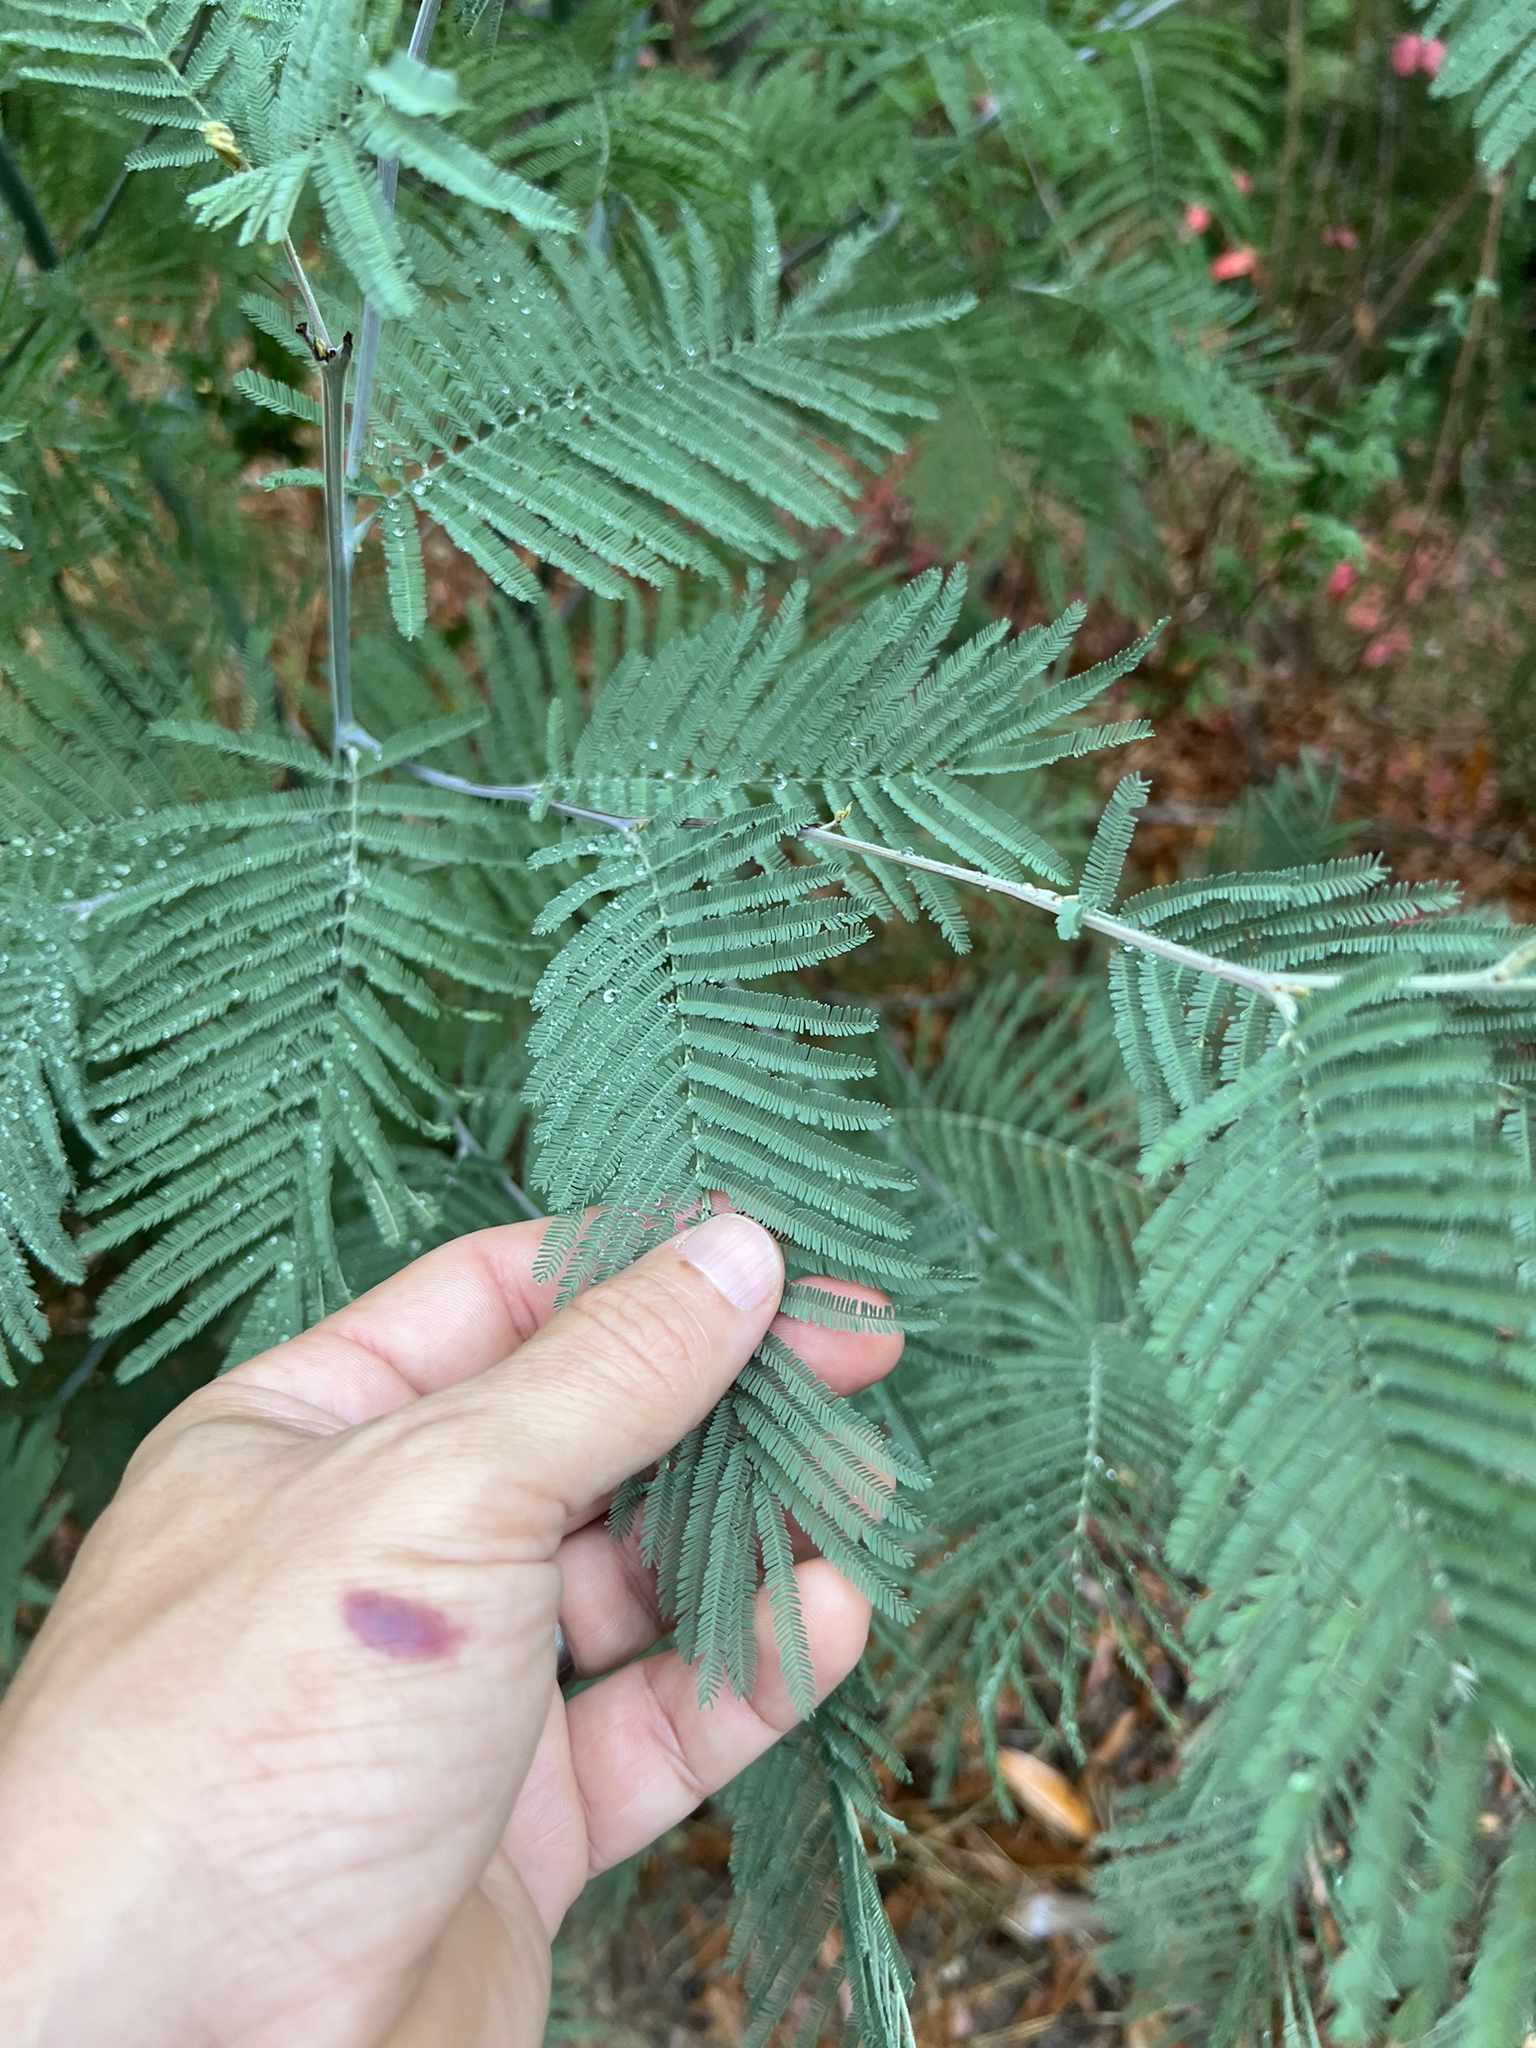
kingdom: Plantae
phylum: Tracheophyta
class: Magnoliopsida
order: Fabales
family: Fabaceae
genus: Acacia
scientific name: Acacia dealbata
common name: Silver wattle
